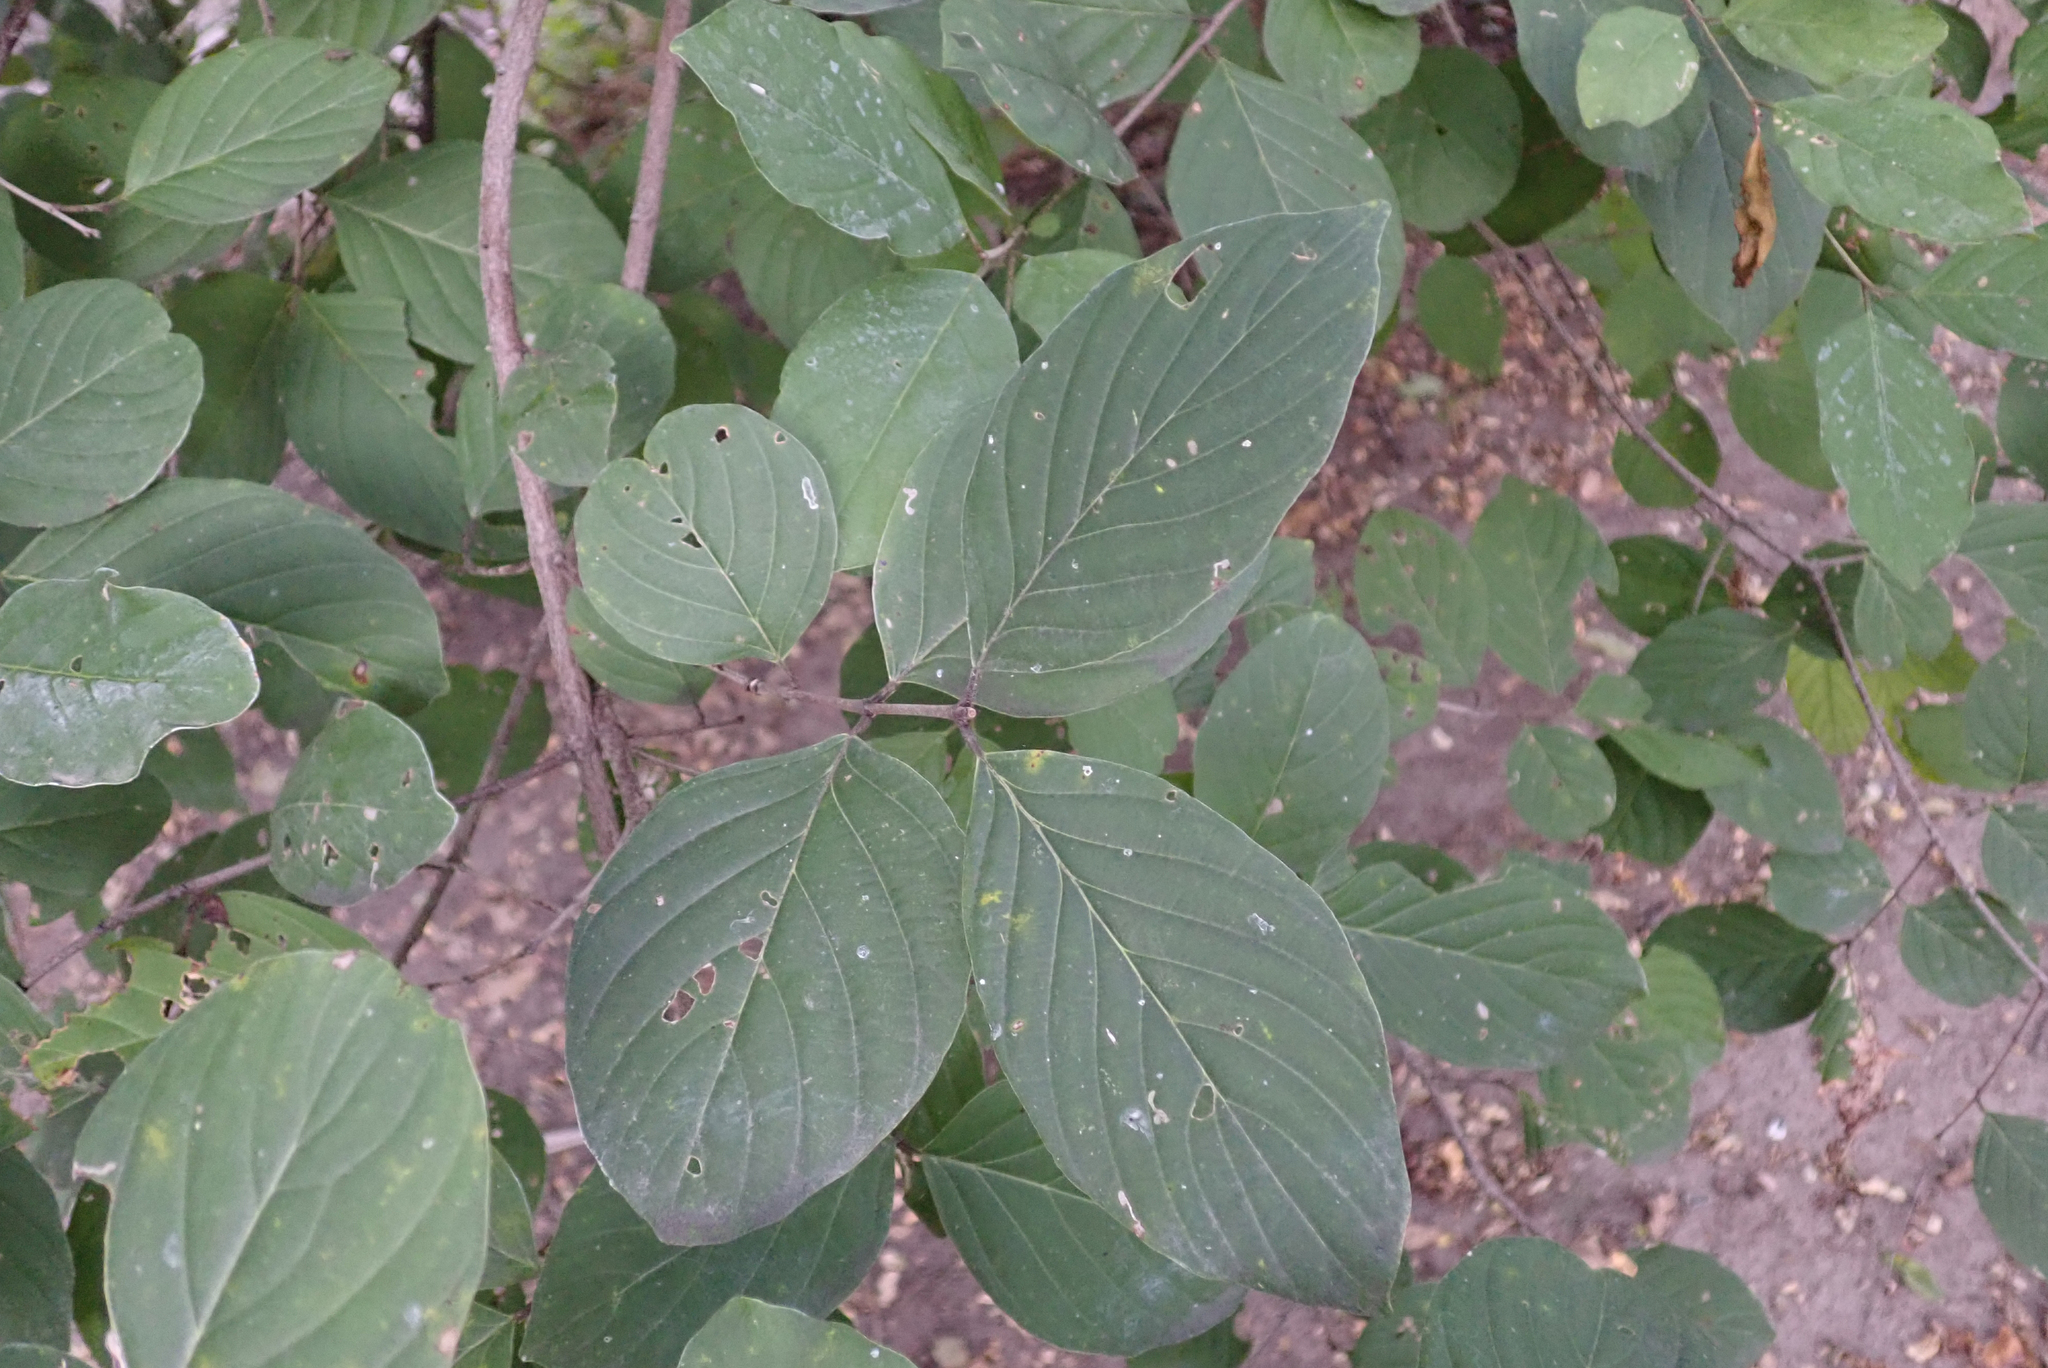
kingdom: Plantae
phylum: Tracheophyta
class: Magnoliopsida
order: Rosales
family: Rhamnaceae
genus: Phyllogeiton
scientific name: Phyllogeiton discolor
